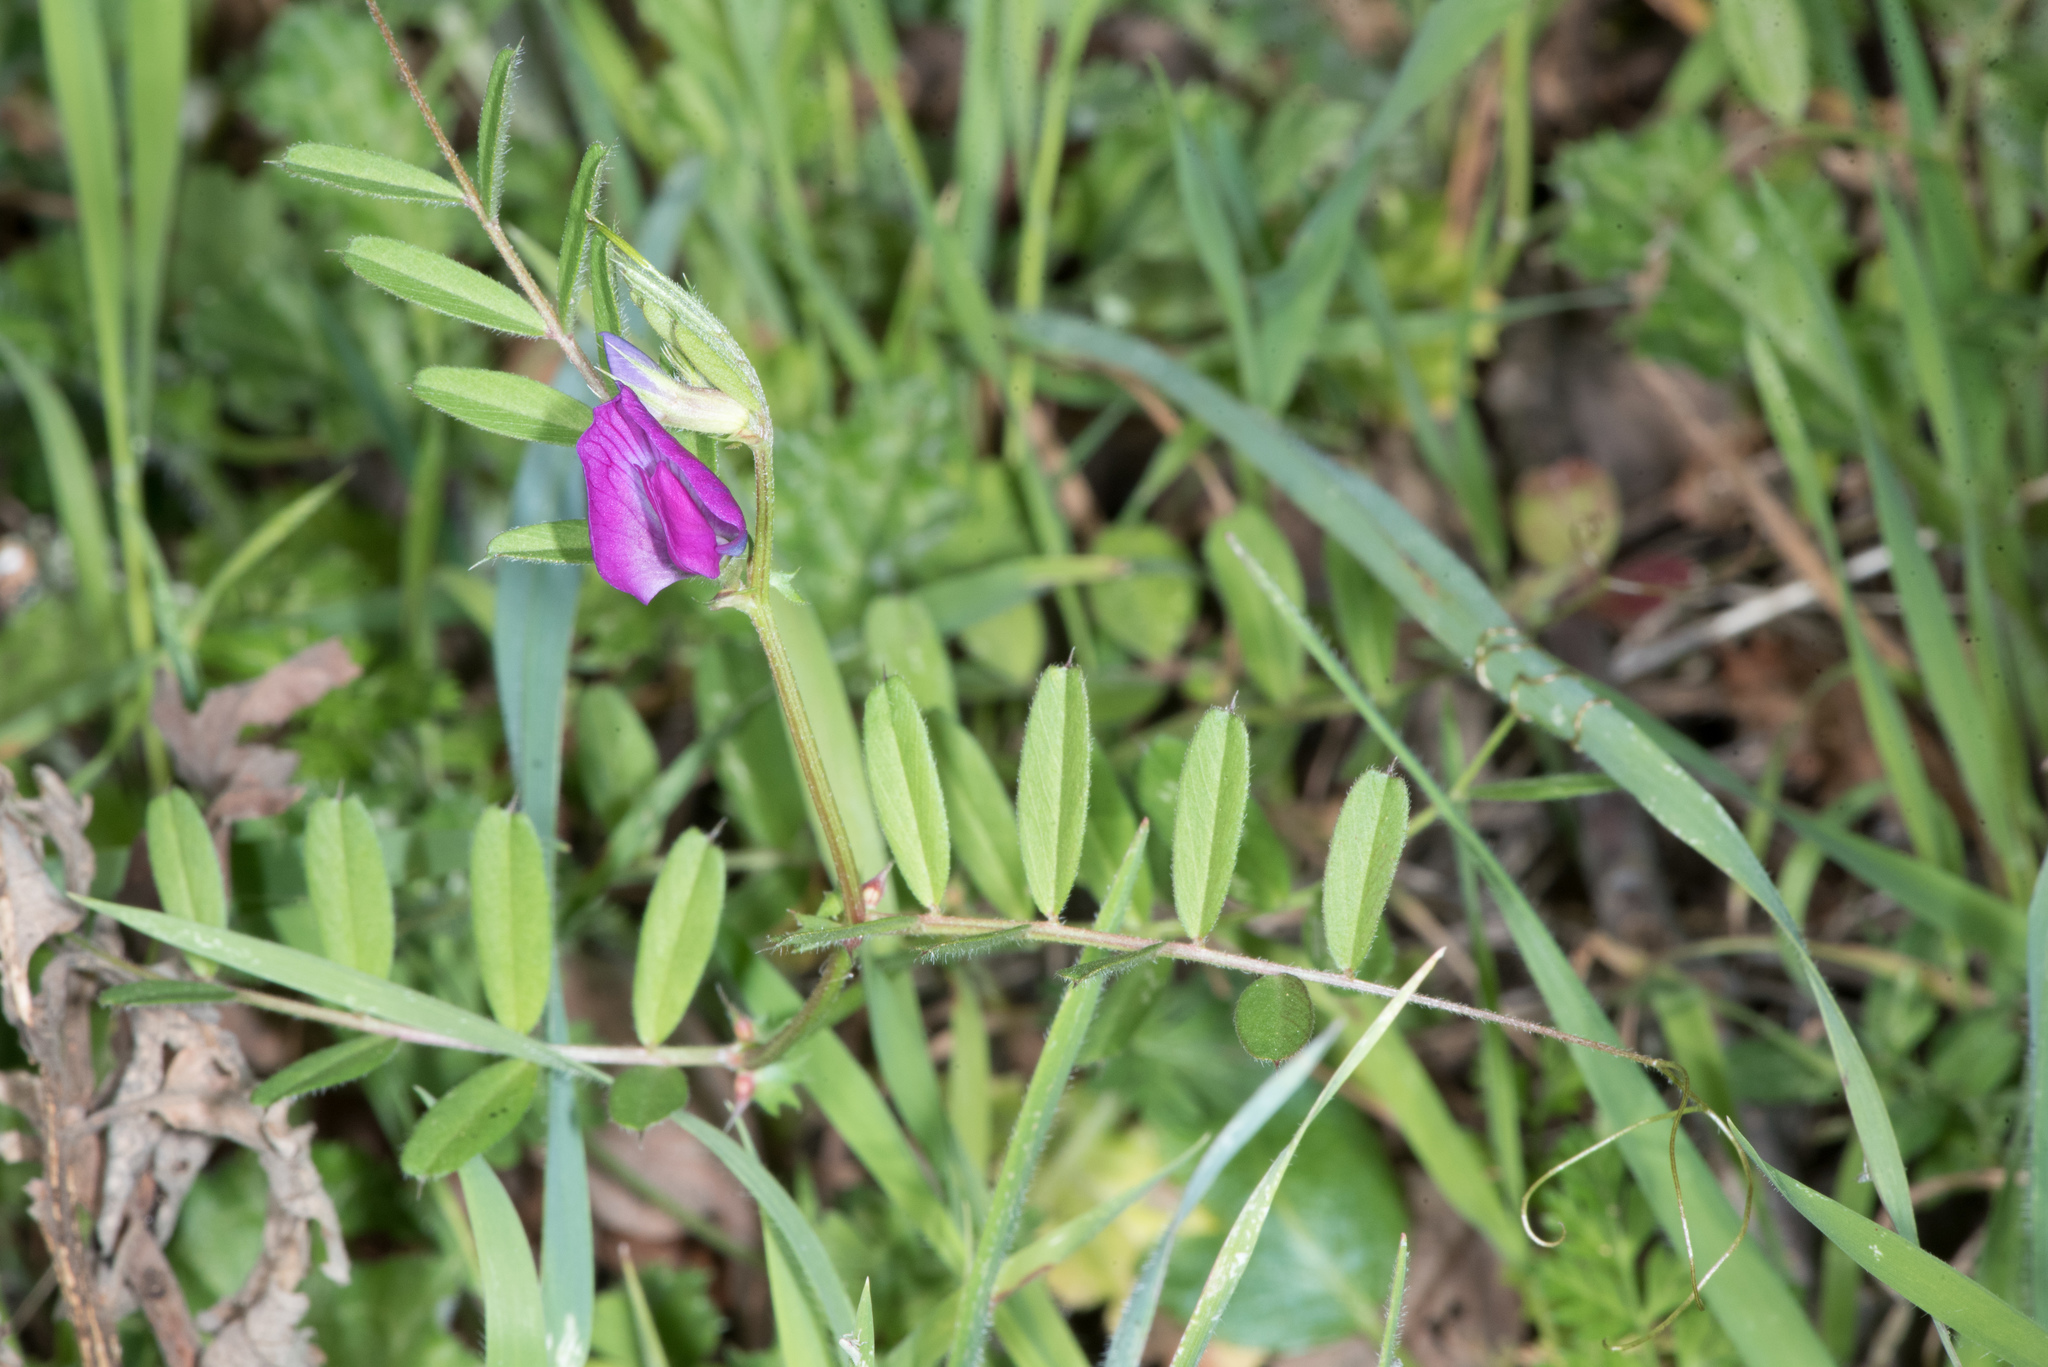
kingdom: Plantae
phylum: Tracheophyta
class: Magnoliopsida
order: Fabales
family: Fabaceae
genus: Vicia
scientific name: Vicia sativa
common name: Garden vetch
